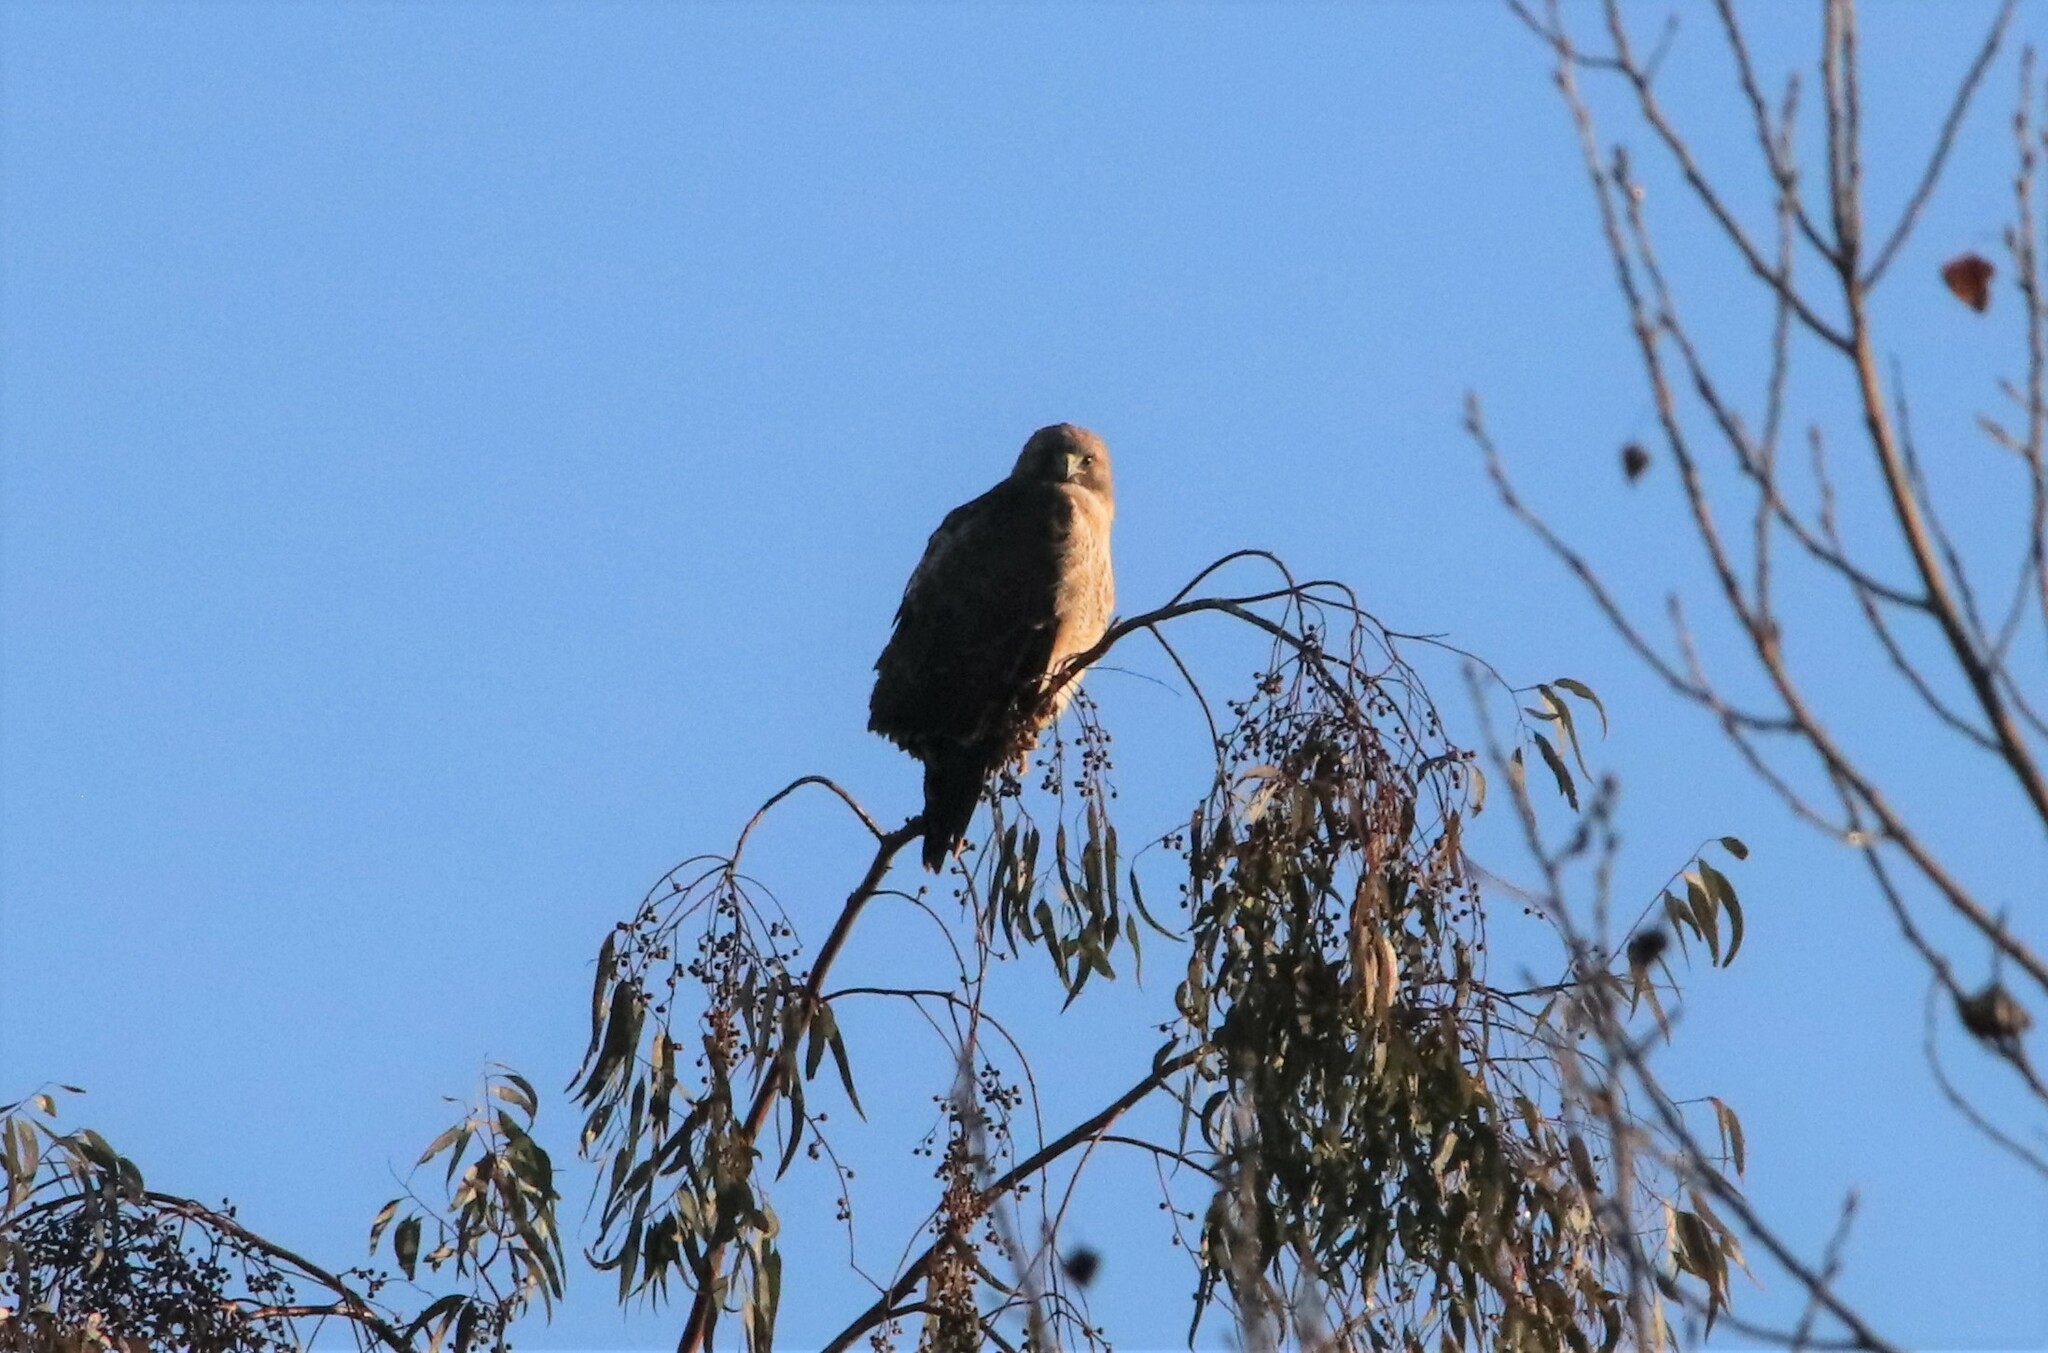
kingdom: Animalia
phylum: Chordata
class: Aves
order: Accipitriformes
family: Accipitridae
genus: Buteo
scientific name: Buteo jamaicensis
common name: Red-tailed hawk
